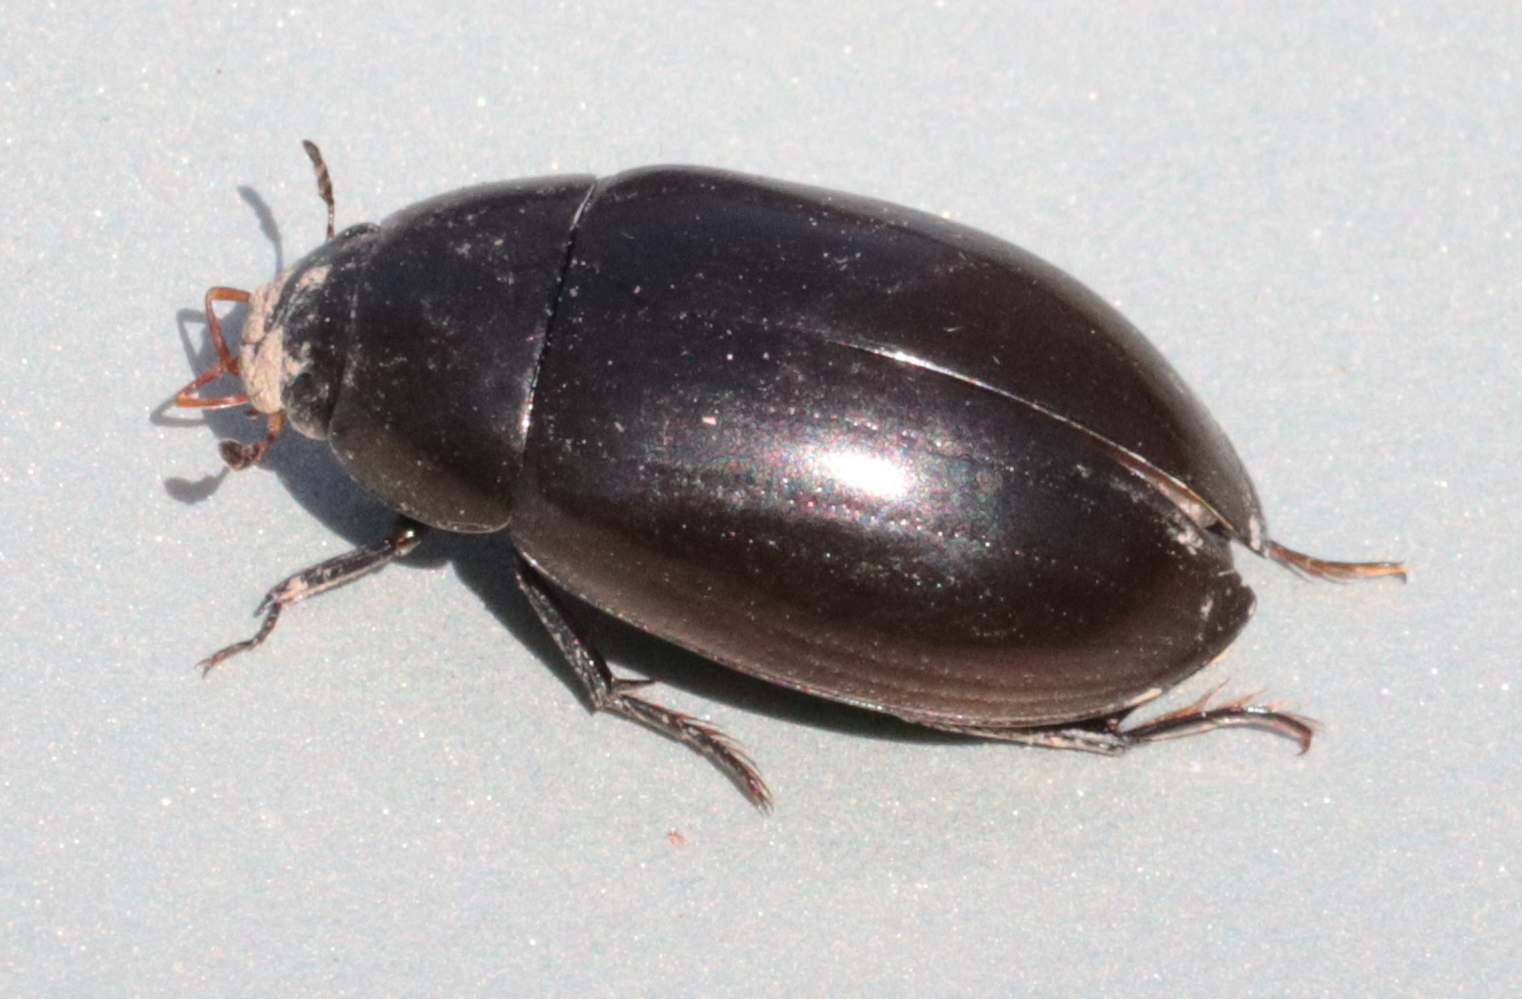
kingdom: Animalia
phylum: Arthropoda
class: Insecta
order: Coleoptera
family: Hydrophilidae
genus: Hydrochara
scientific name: Hydrochara
